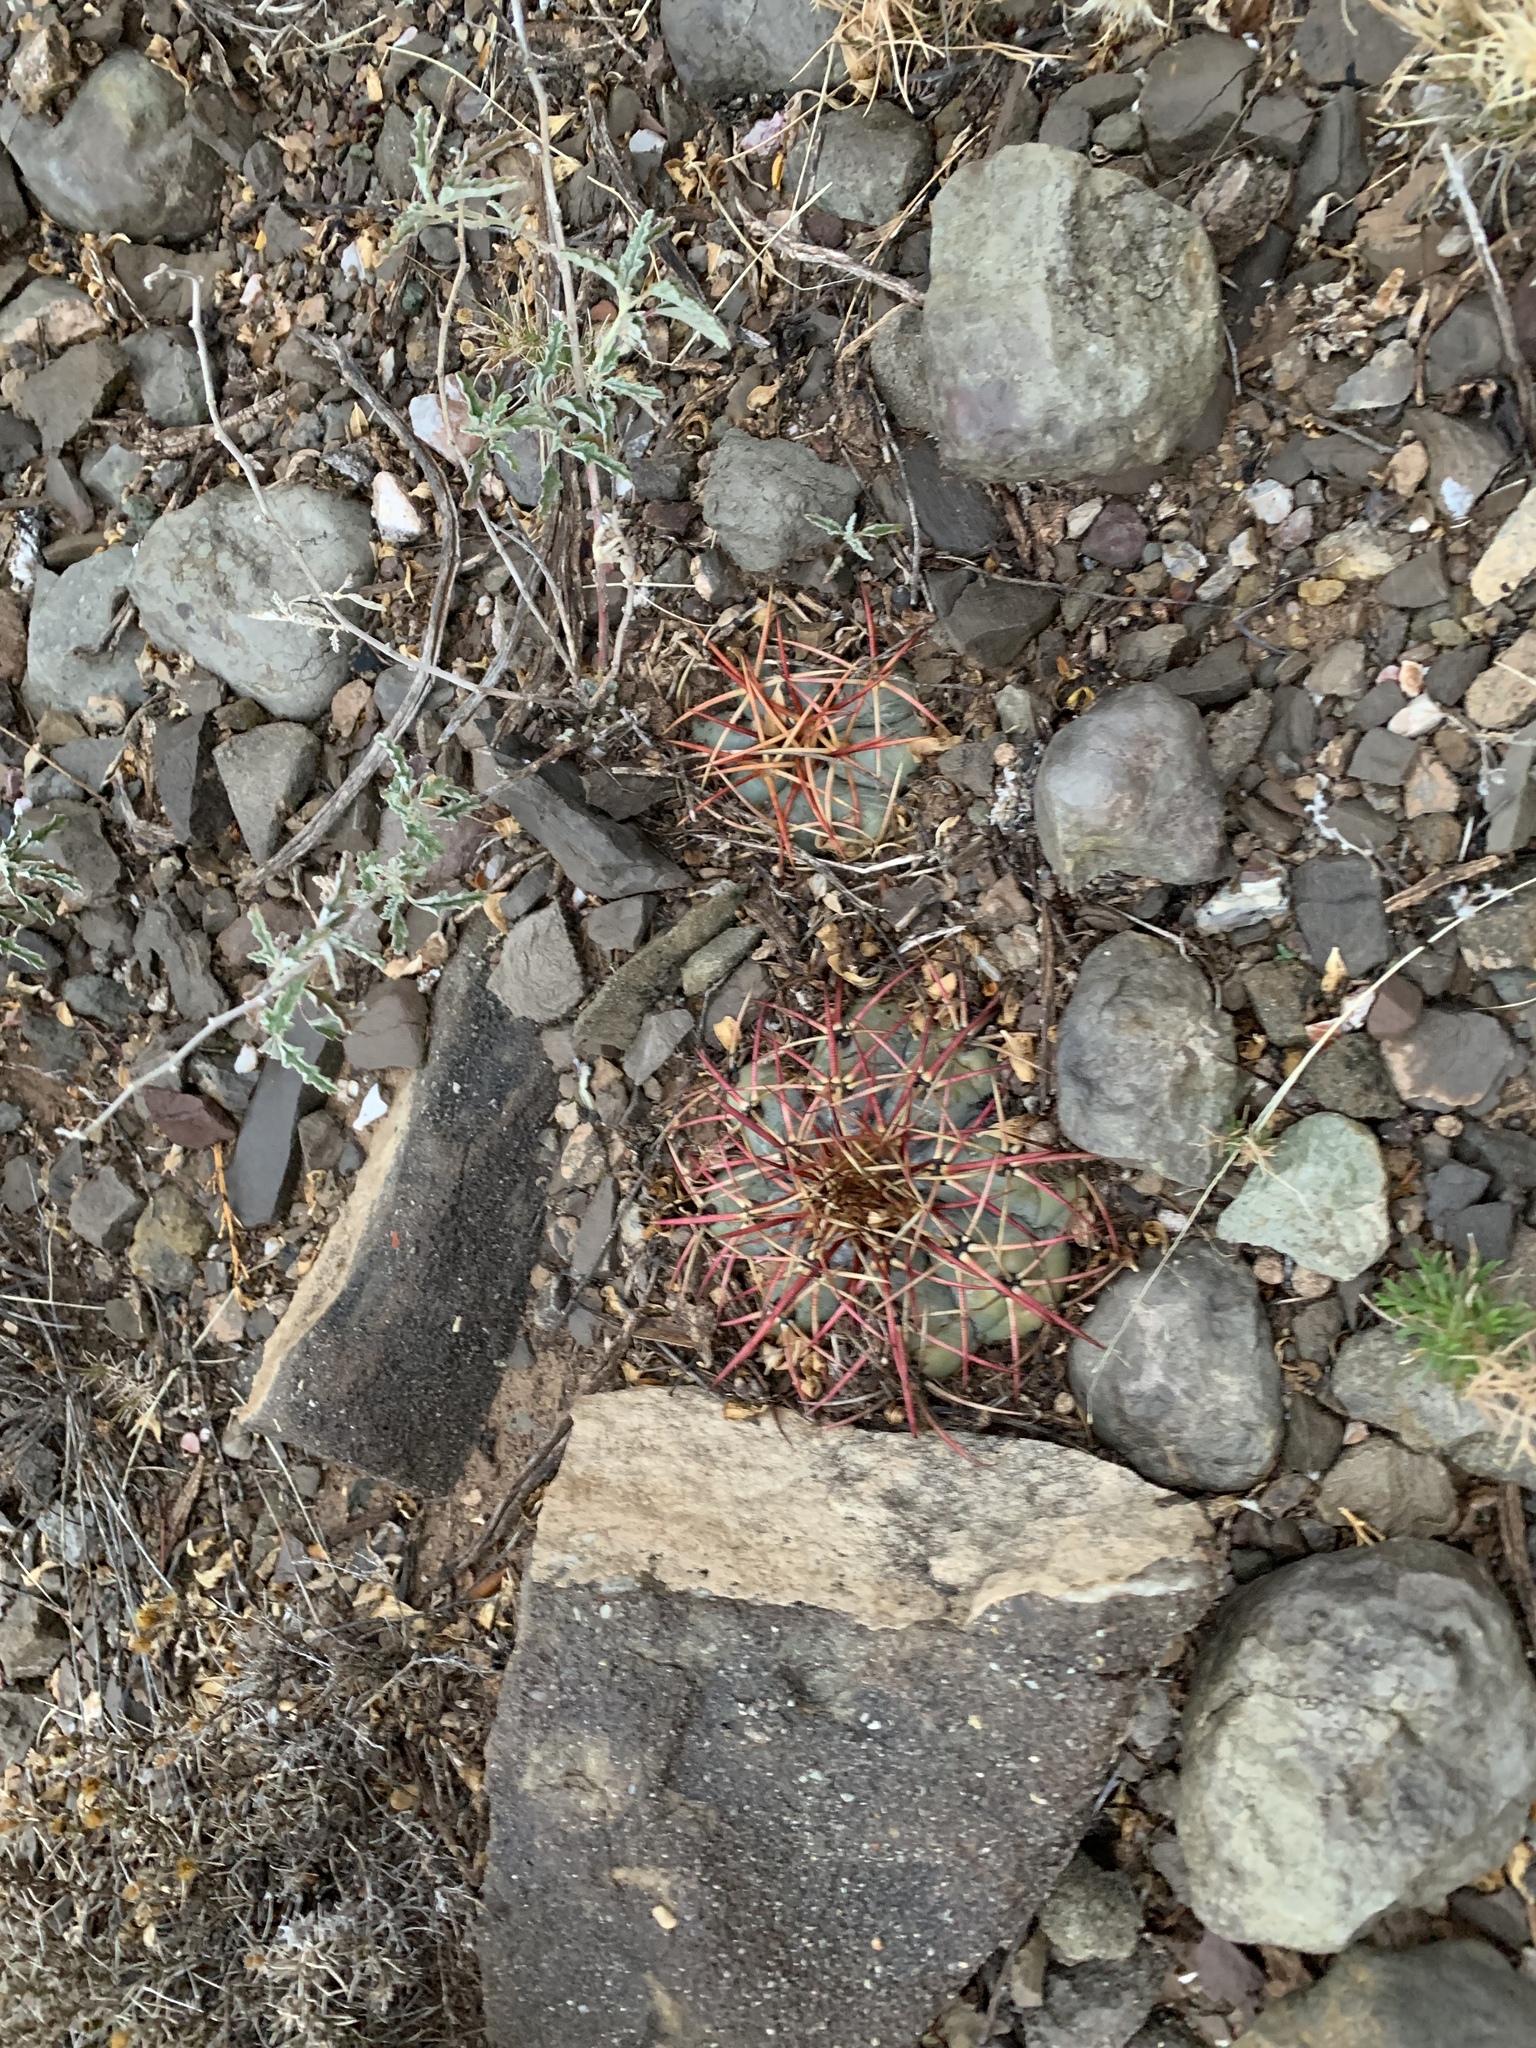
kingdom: Plantae
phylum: Tracheophyta
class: Magnoliopsida
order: Caryophyllales
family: Cactaceae
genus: Echinocactus
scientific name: Echinocactus horizonthalonius
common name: Devilshead
